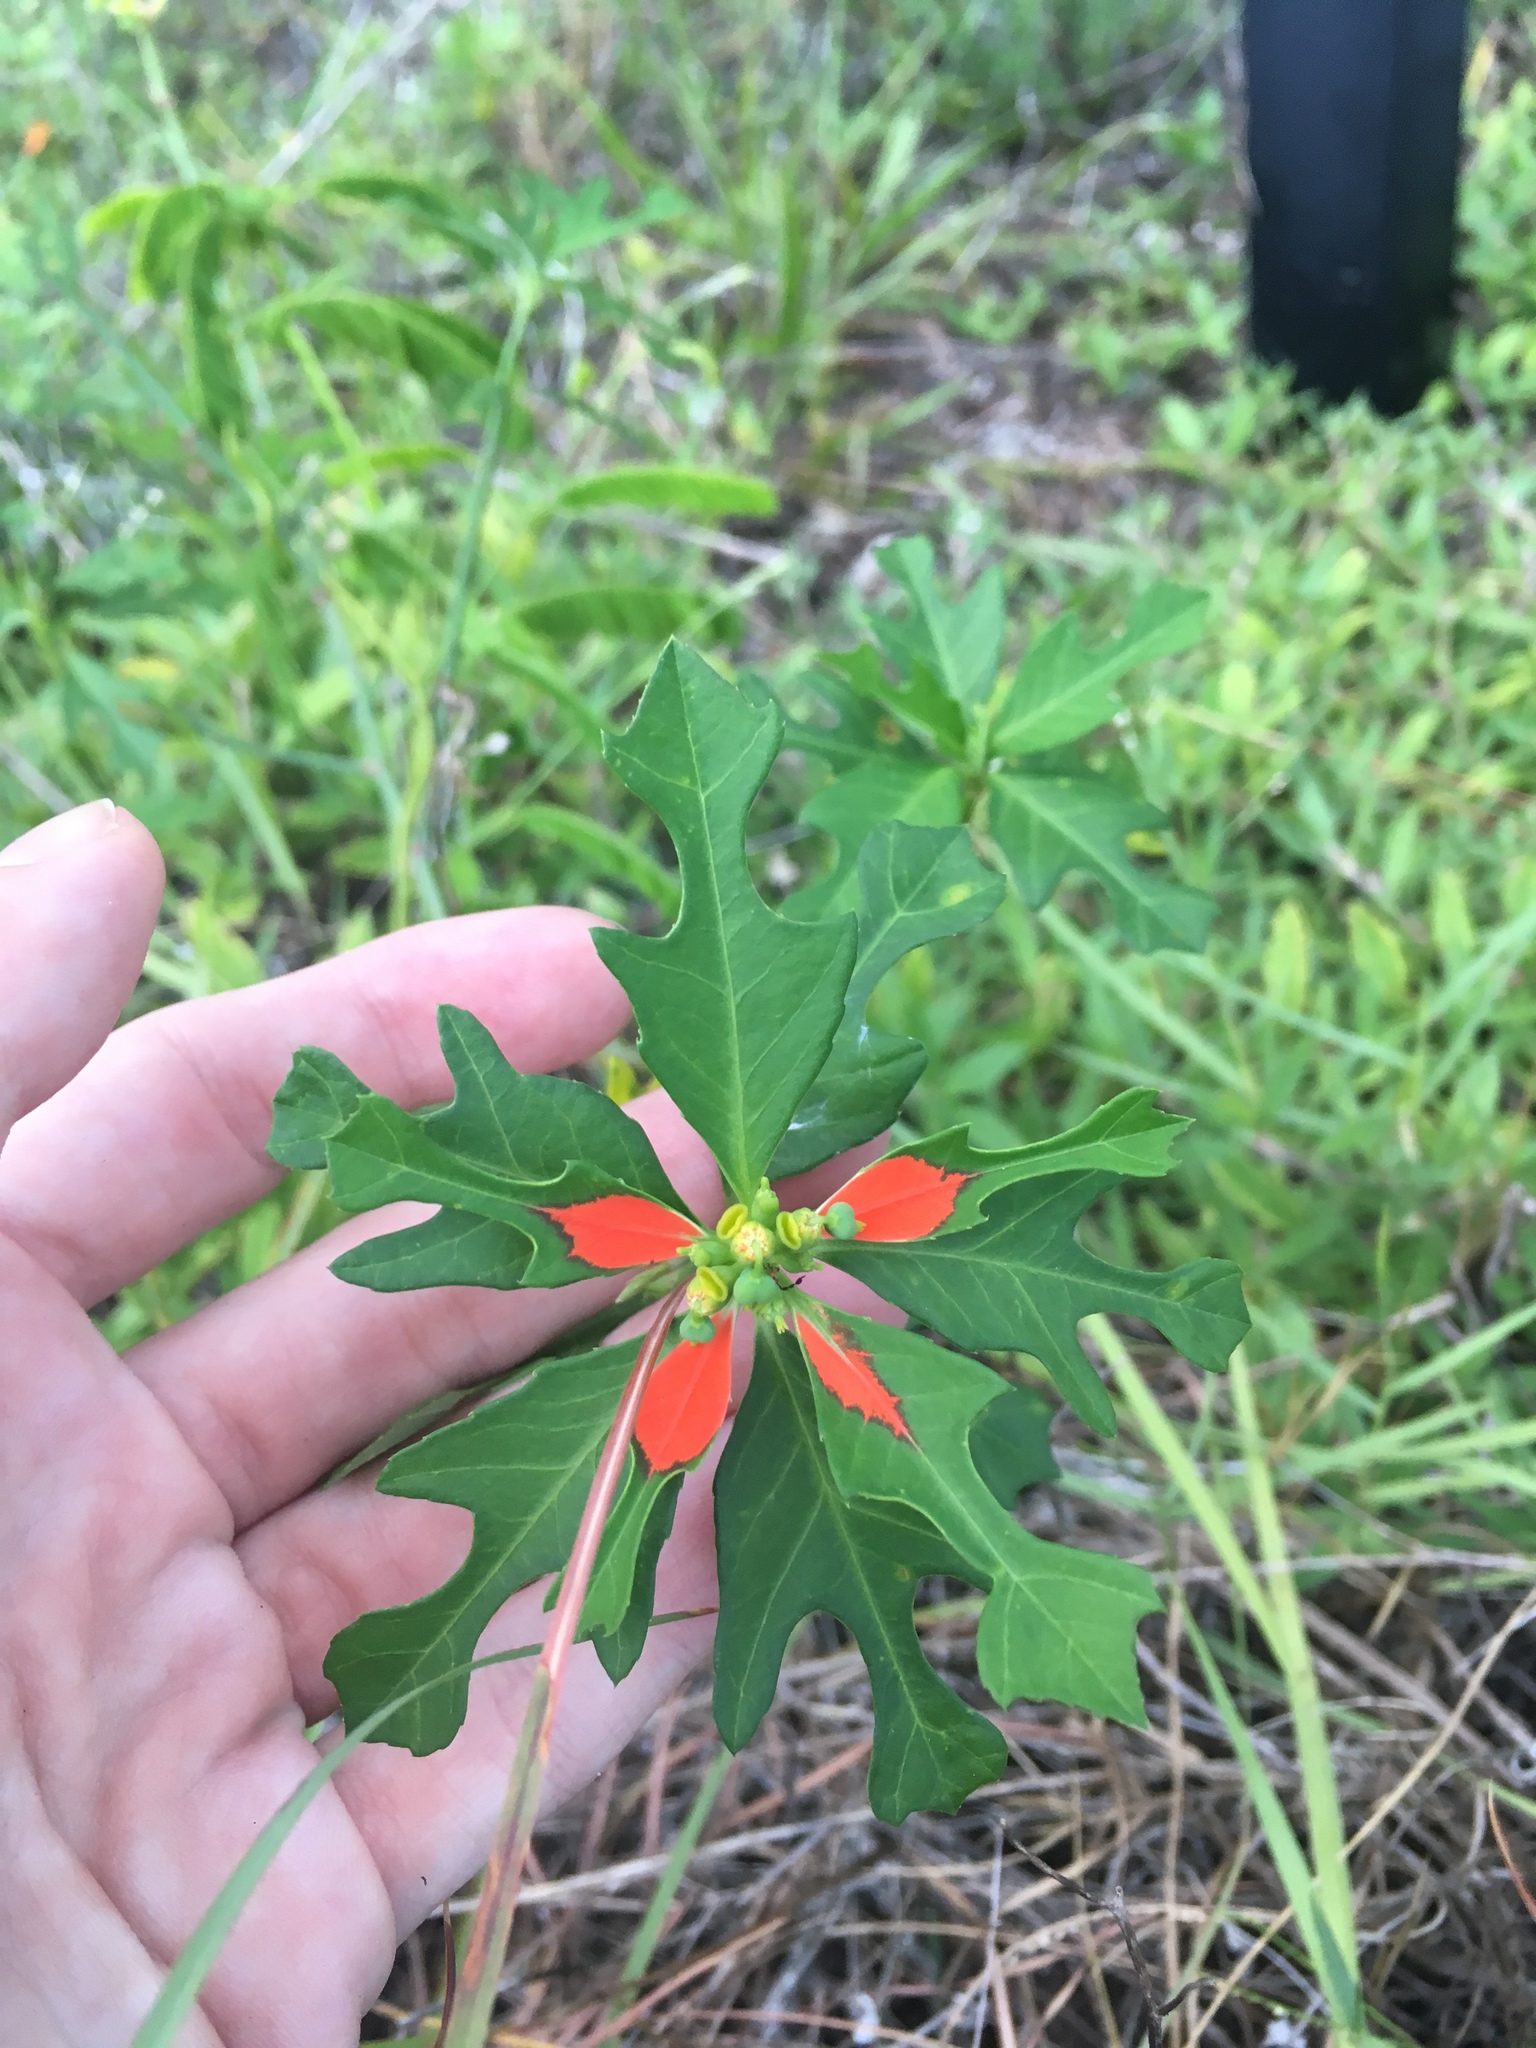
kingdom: Plantae
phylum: Tracheophyta
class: Magnoliopsida
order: Malpighiales
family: Euphorbiaceae
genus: Euphorbia
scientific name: Euphorbia heterophylla
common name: Mexican fireplant
